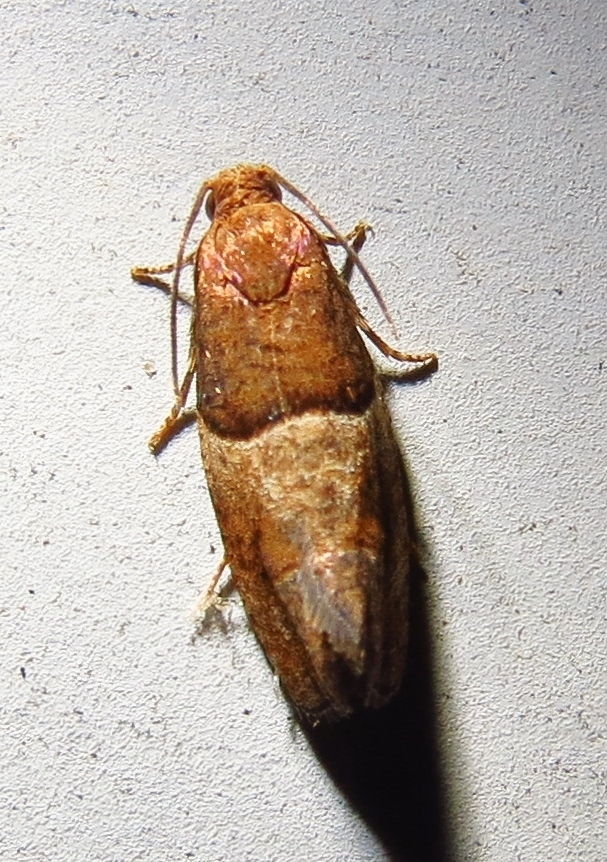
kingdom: Animalia
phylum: Arthropoda
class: Insecta
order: Lepidoptera
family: Tortricidae
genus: Larisa
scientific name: Larisa subsolana
